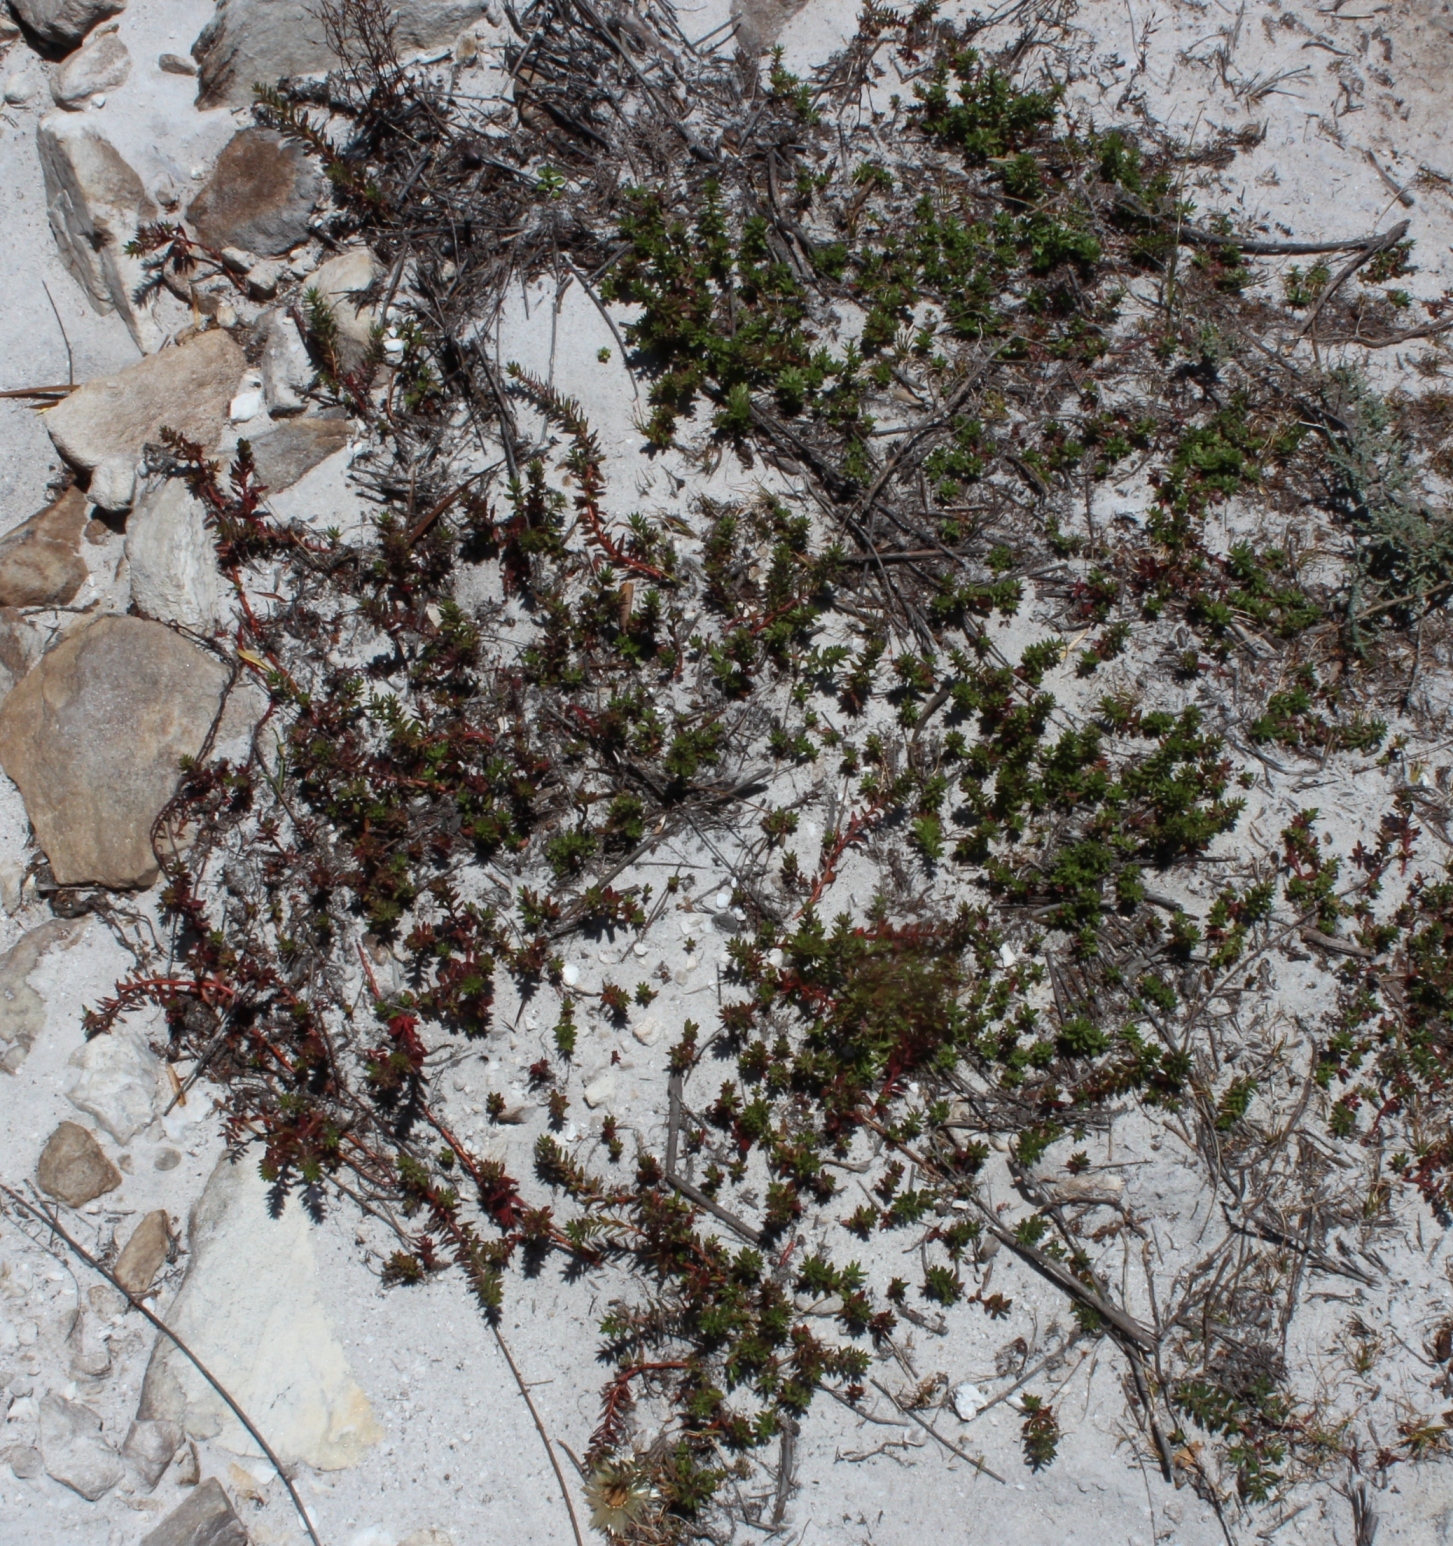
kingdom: Plantae
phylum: Tracheophyta
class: Magnoliopsida
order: Saxifragales
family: Haloragaceae
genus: Laurembergia
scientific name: Laurembergia repens
